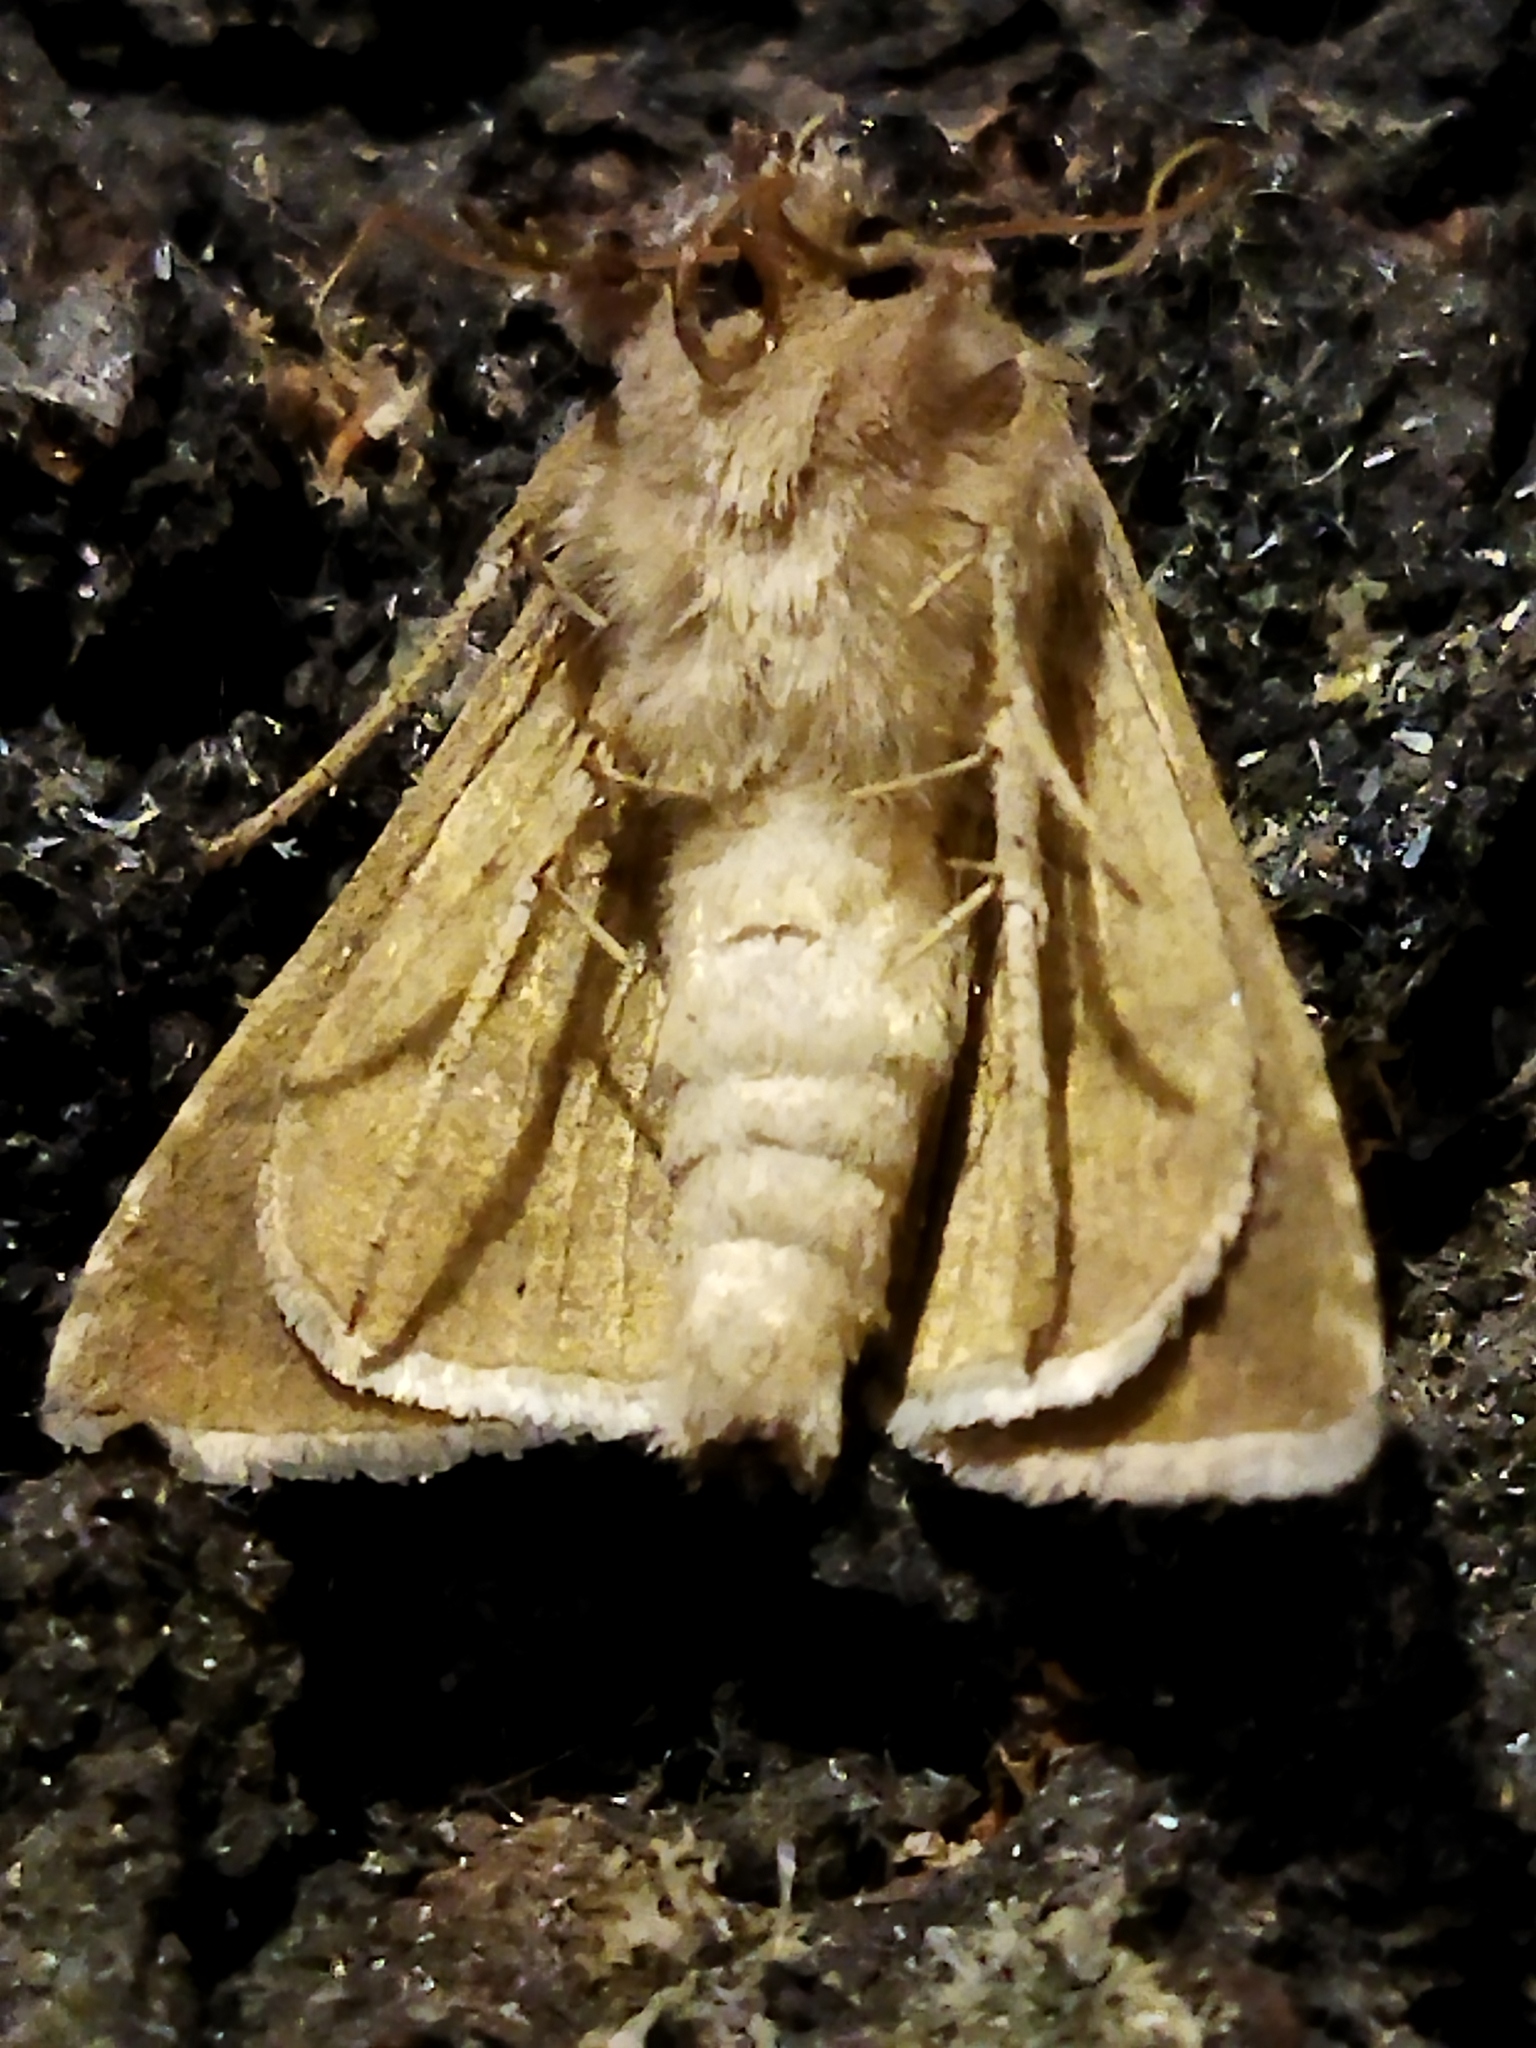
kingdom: Animalia
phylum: Arthropoda
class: Insecta
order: Lepidoptera
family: Noctuidae
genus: Macdunnoughia
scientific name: Macdunnoughia confusa
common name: Dewick's plusia
